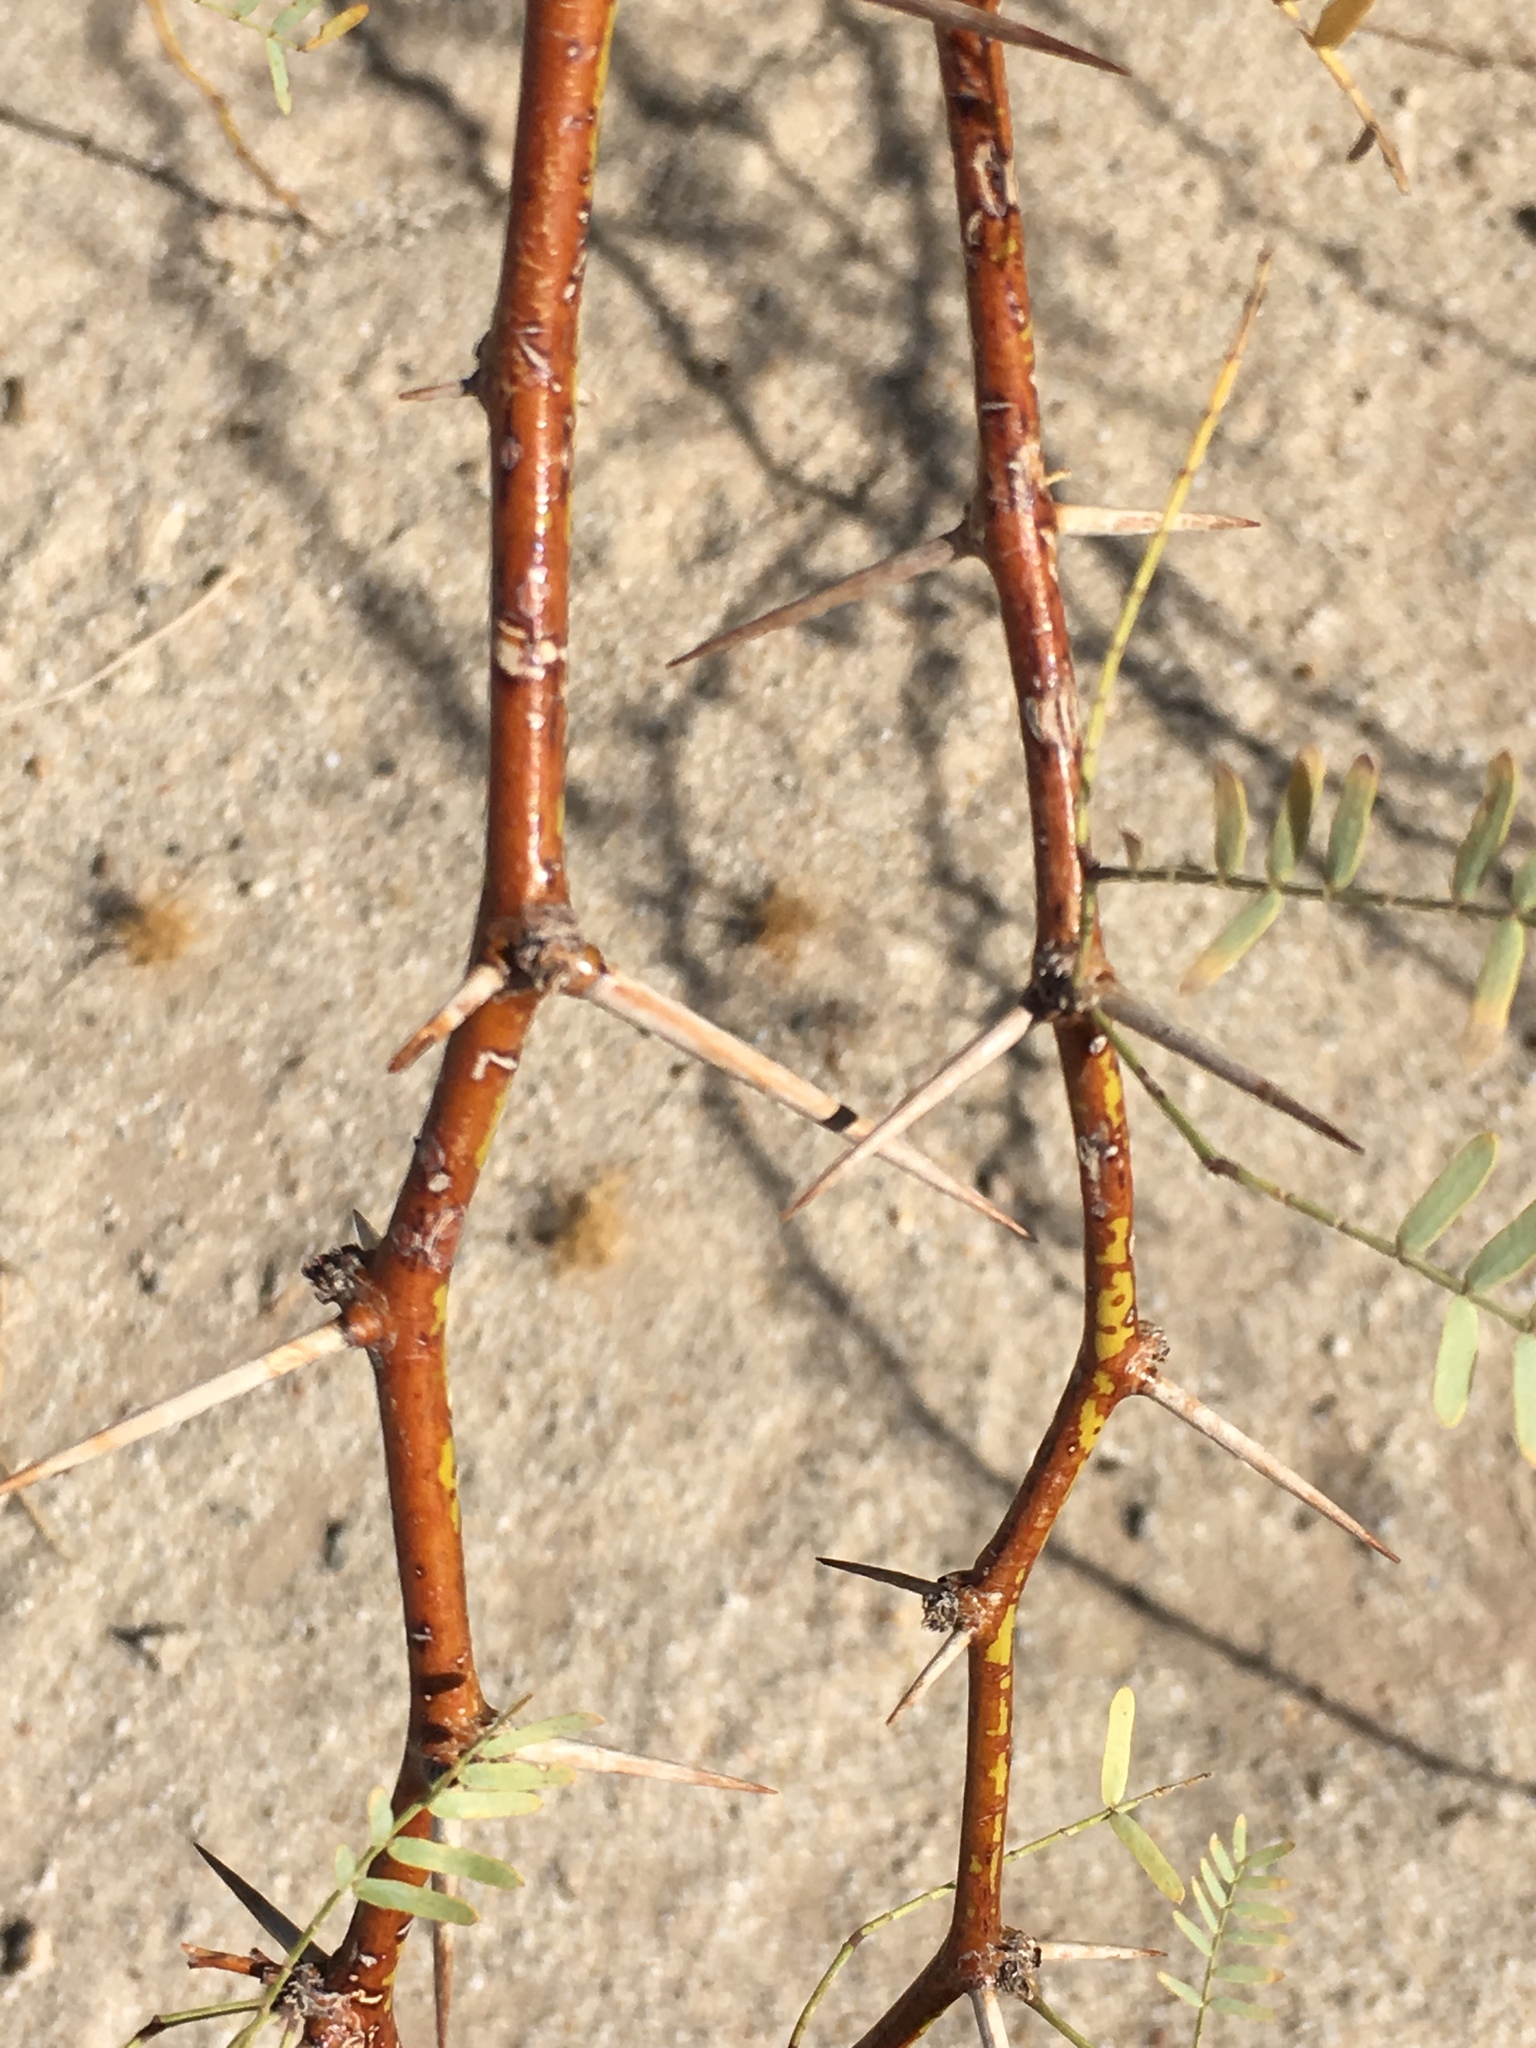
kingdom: Plantae
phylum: Tracheophyta
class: Magnoliopsida
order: Fabales
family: Fabaceae
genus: Prosopis
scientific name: Prosopis pubescens
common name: Screw-bean
